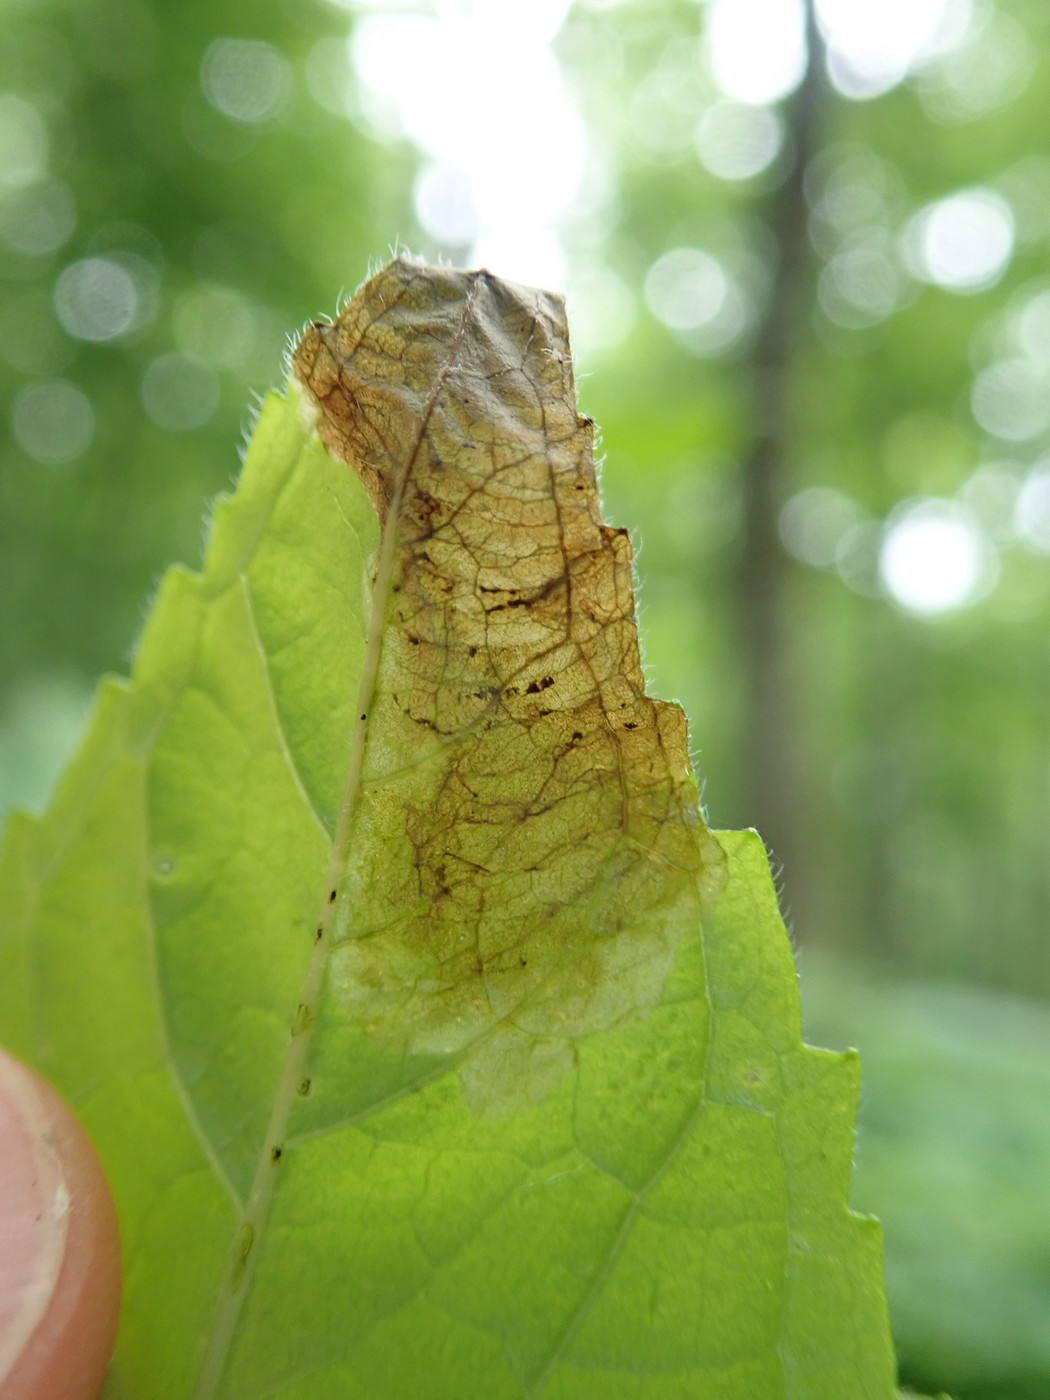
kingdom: Animalia
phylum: Arthropoda
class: Insecta
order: Diptera
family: Agromyzidae
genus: Calycomyza
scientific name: Calycomyza menthae
